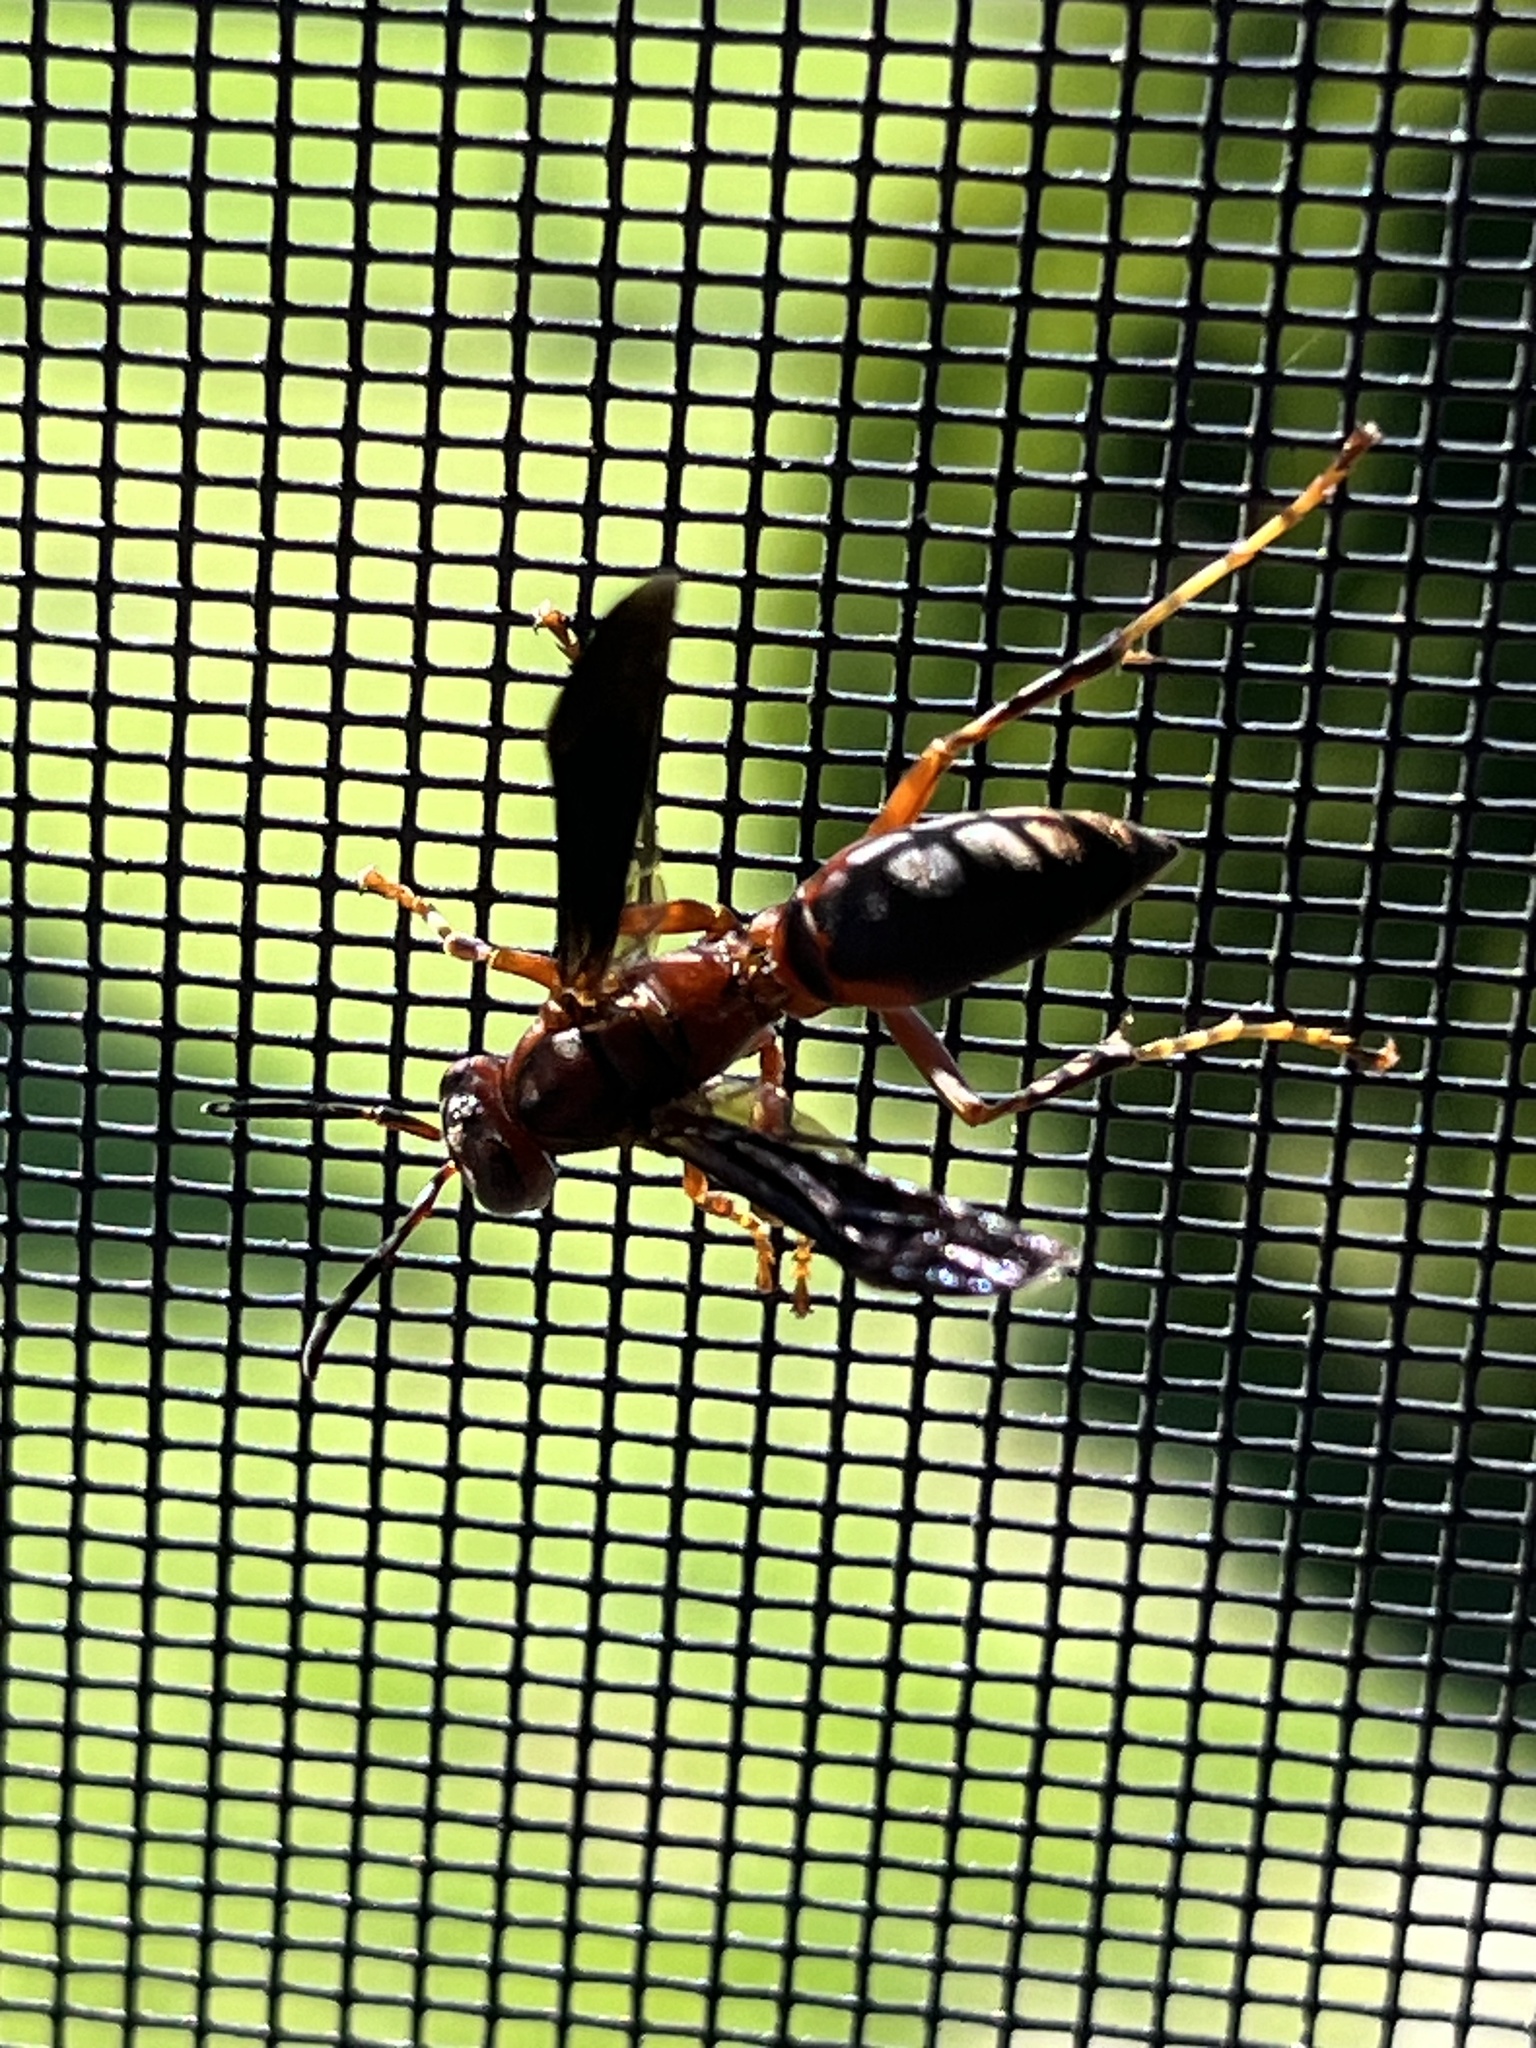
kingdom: Animalia
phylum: Arthropoda
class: Insecta
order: Hymenoptera
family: Eumenidae
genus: Polistes
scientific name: Polistes metricus
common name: Metric paper wasp
